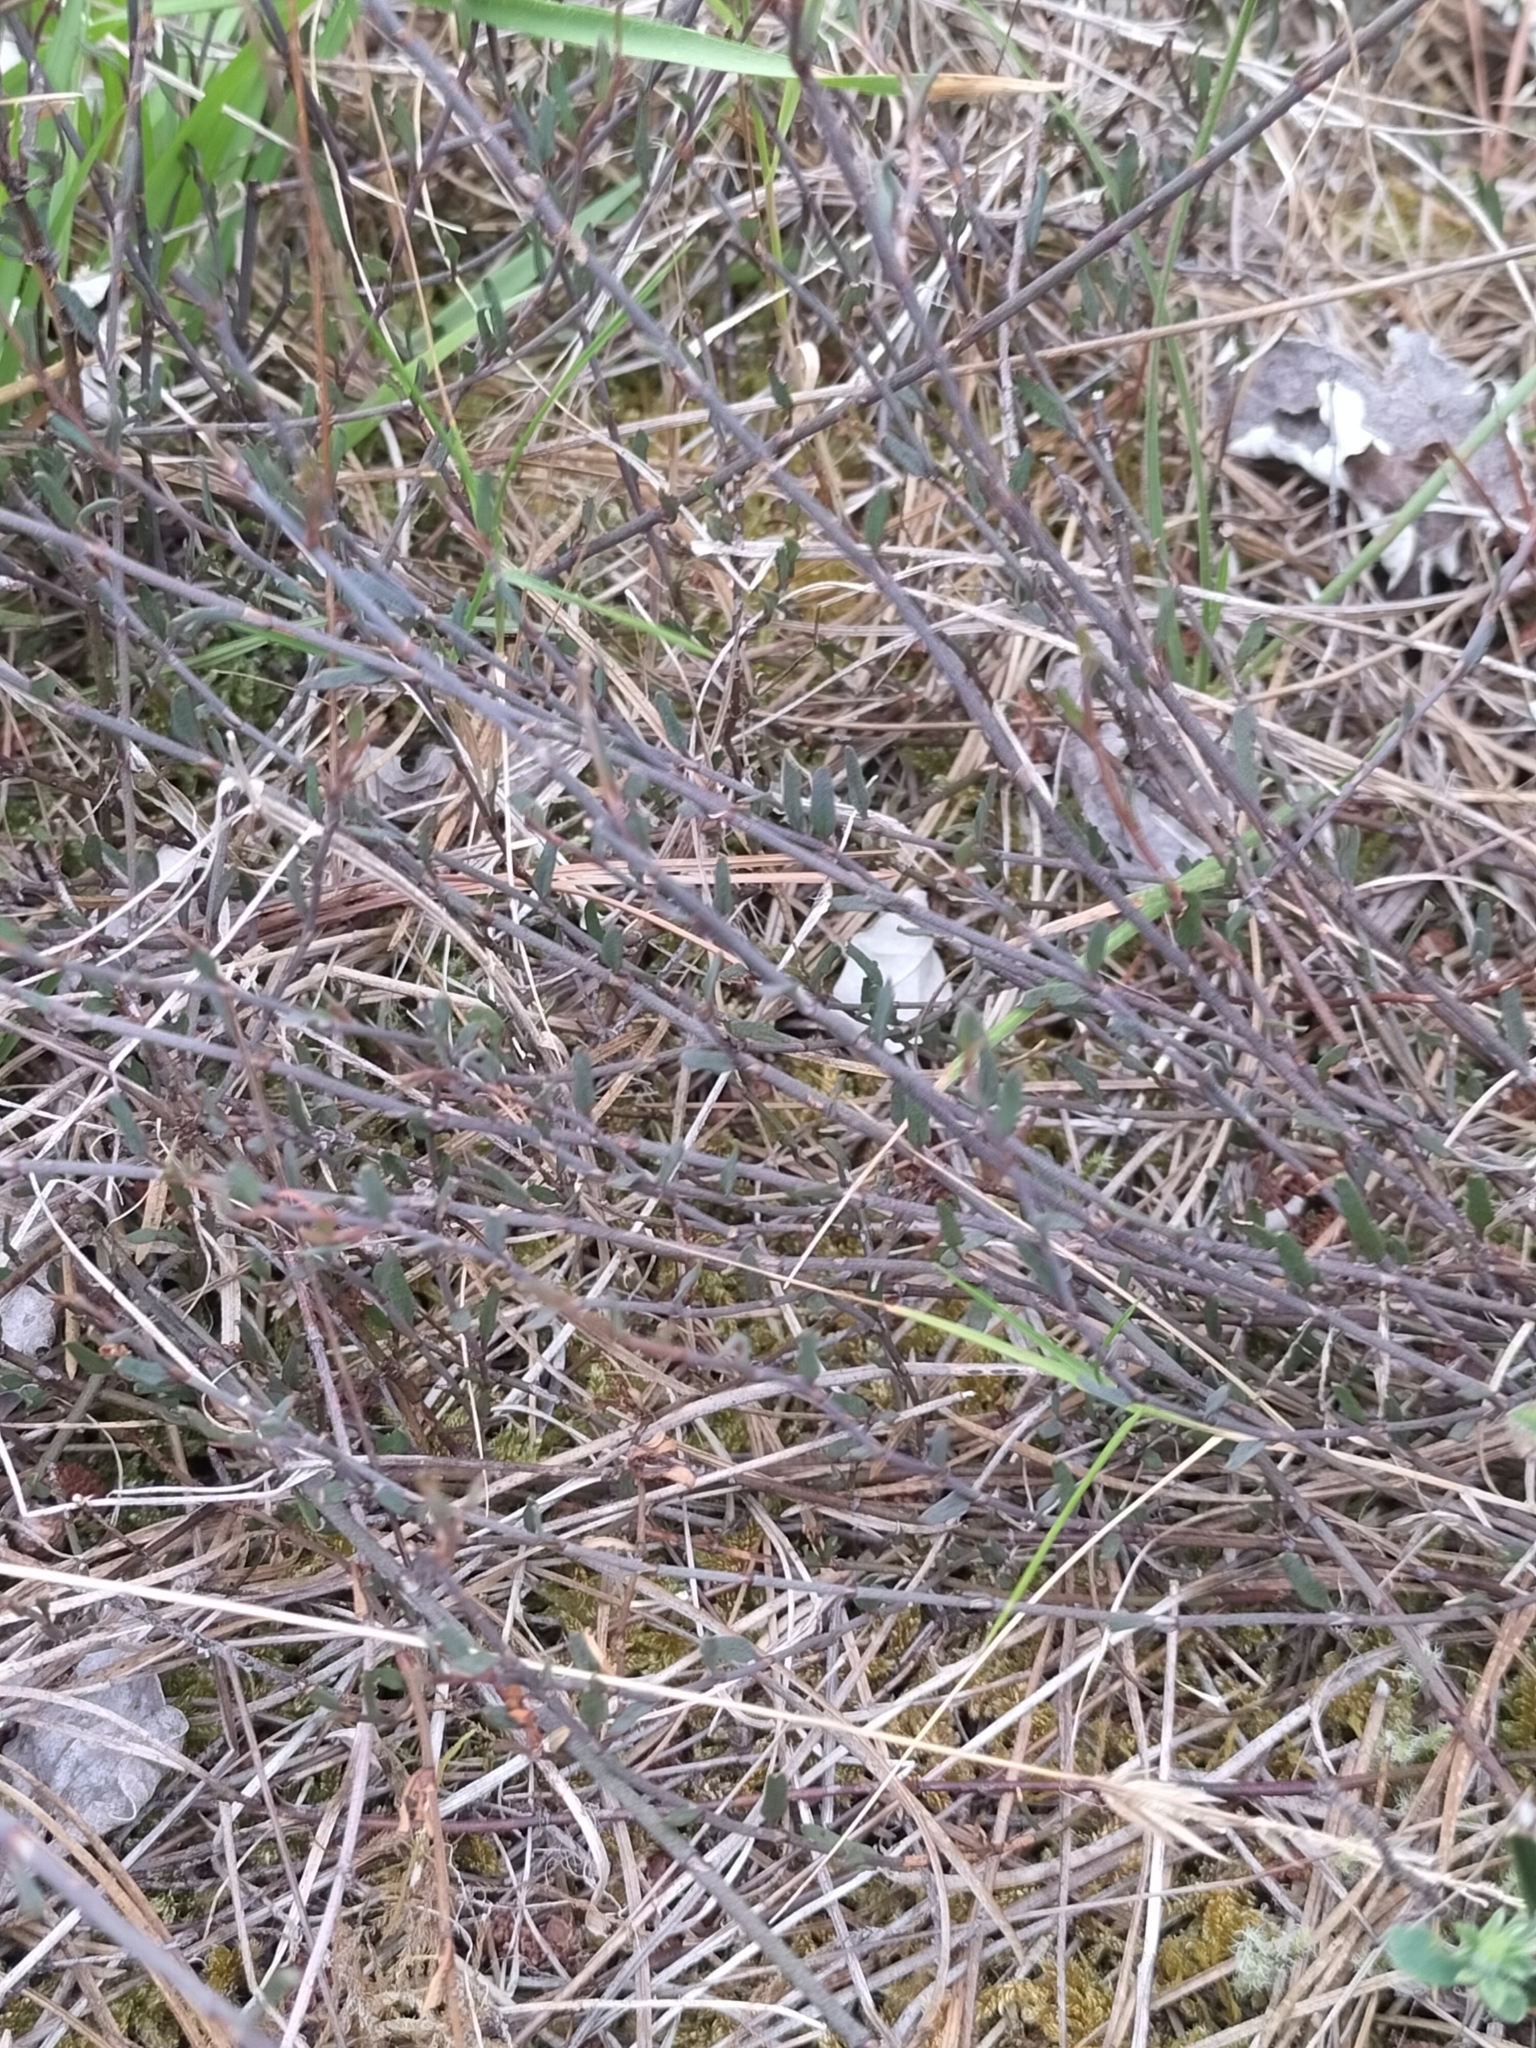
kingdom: Plantae
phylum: Tracheophyta
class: Magnoliopsida
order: Caryophyllales
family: Polygonaceae
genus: Muehlenbeckia
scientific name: Muehlenbeckia ephedroides
